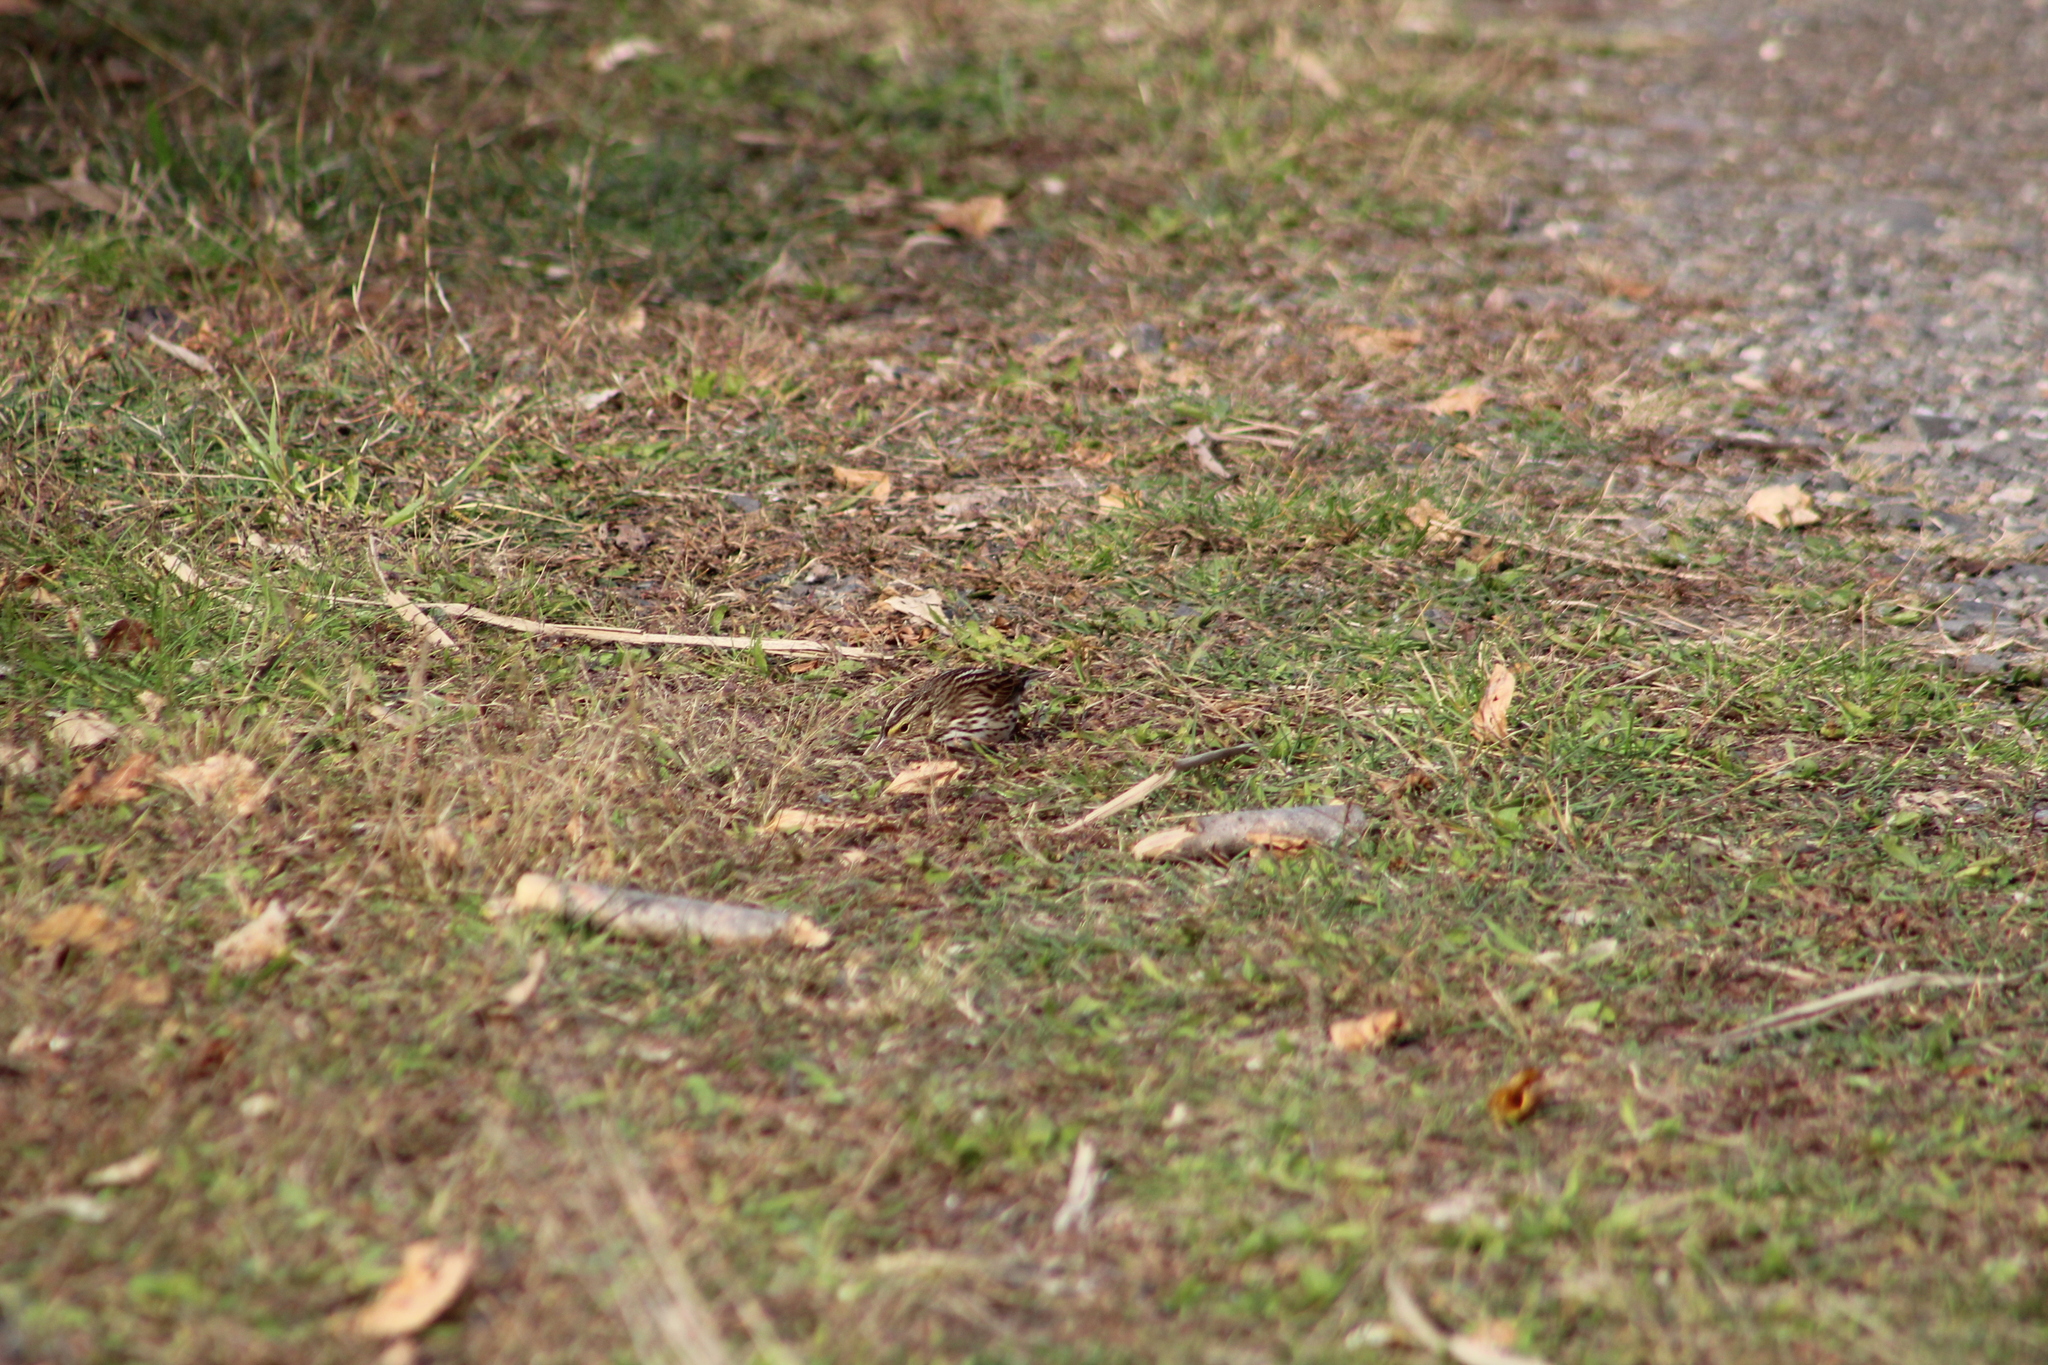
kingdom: Animalia
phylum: Chordata
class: Aves
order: Passeriformes
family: Passerellidae
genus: Passerculus
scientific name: Passerculus sandwichensis
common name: Savannah sparrow
